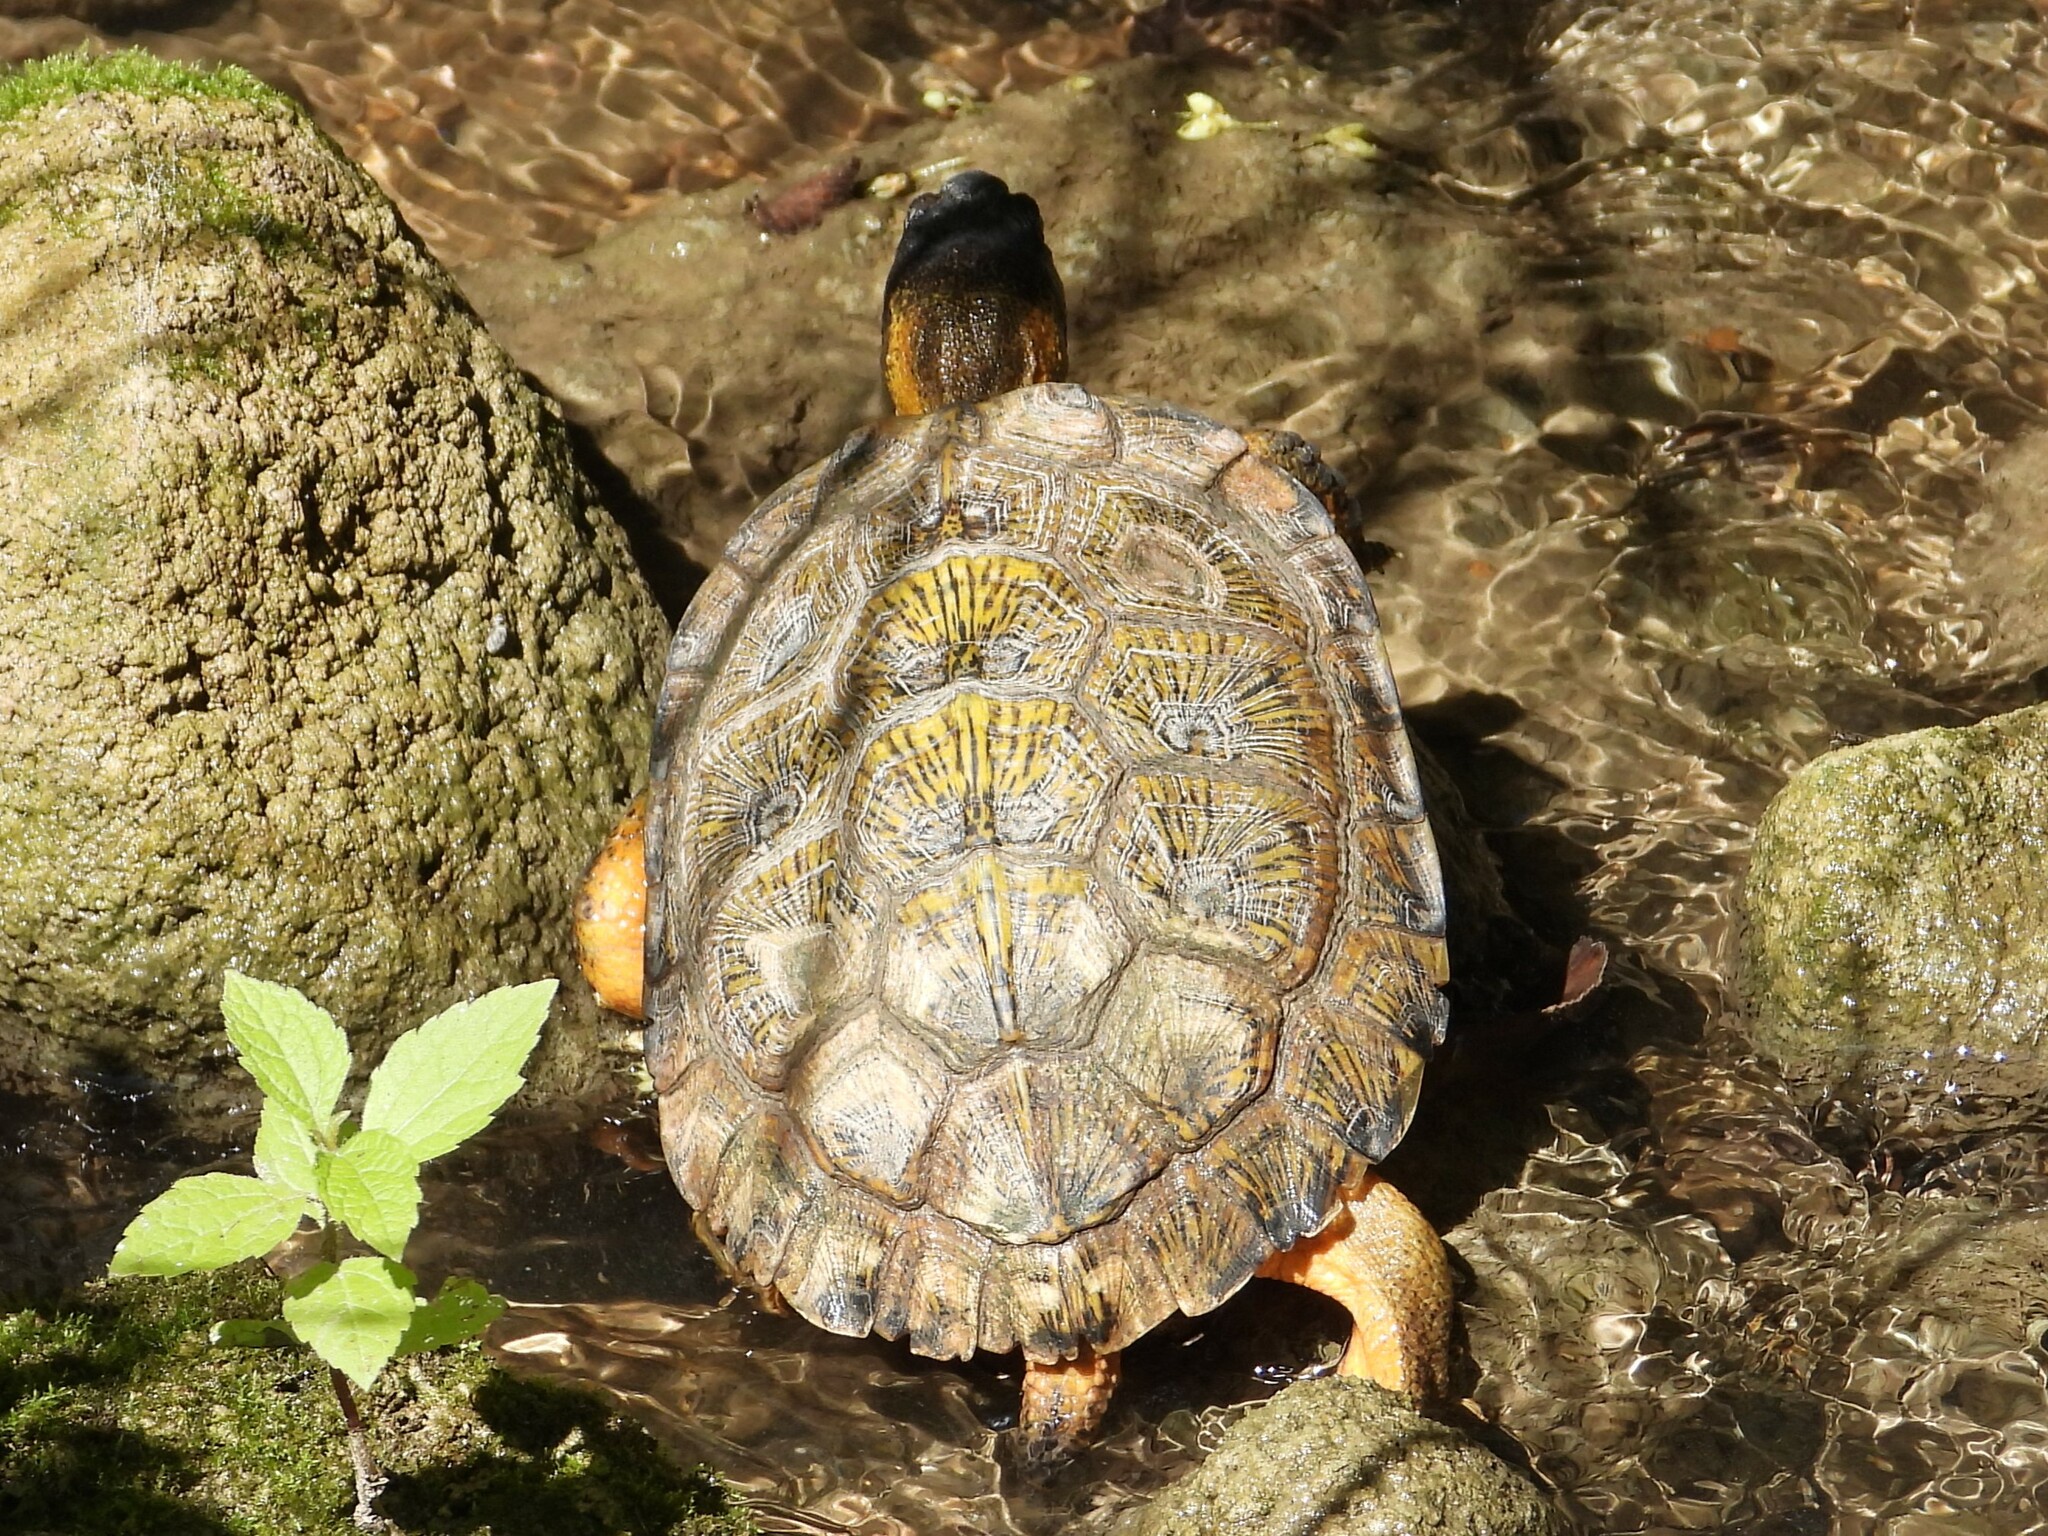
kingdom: Animalia
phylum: Chordata
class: Testudines
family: Emydidae
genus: Glyptemys
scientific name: Glyptemys insculpta
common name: Wood turtle
